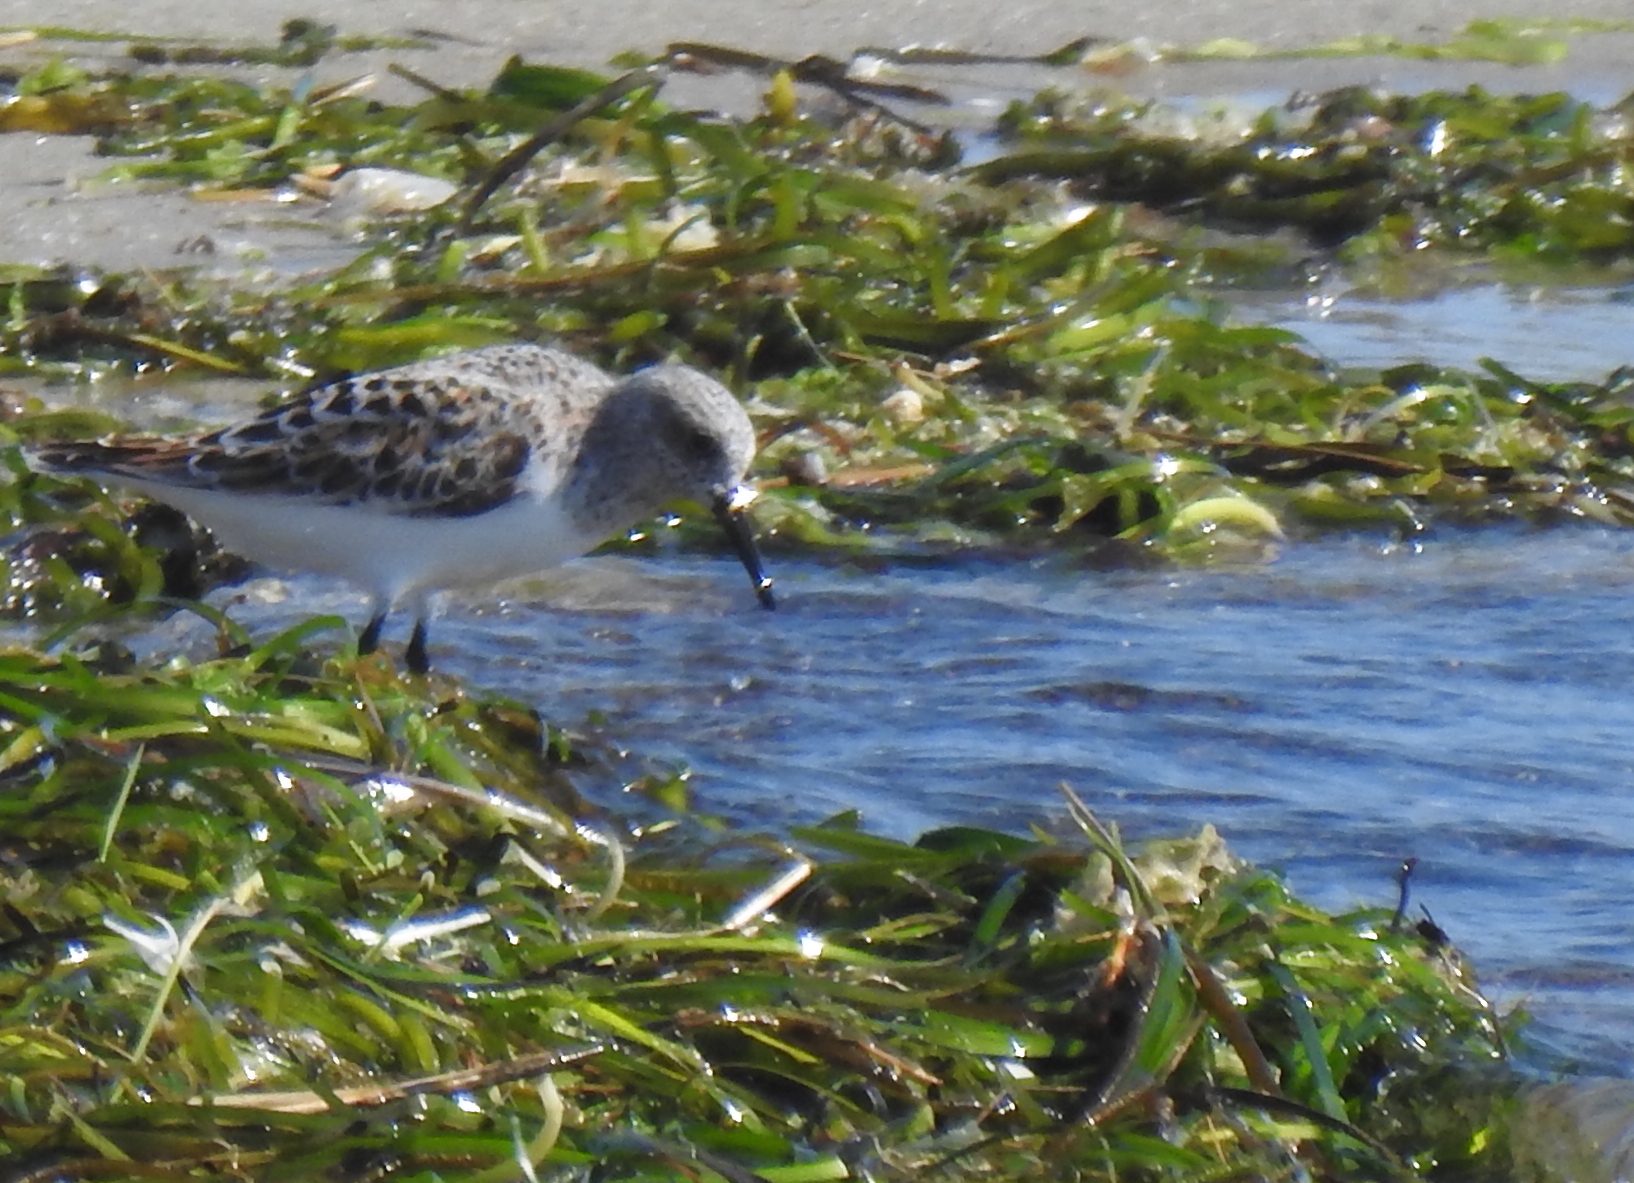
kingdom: Animalia
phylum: Chordata
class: Aves
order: Charadriiformes
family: Scolopacidae
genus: Calidris
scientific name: Calidris alba
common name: Sanderling
